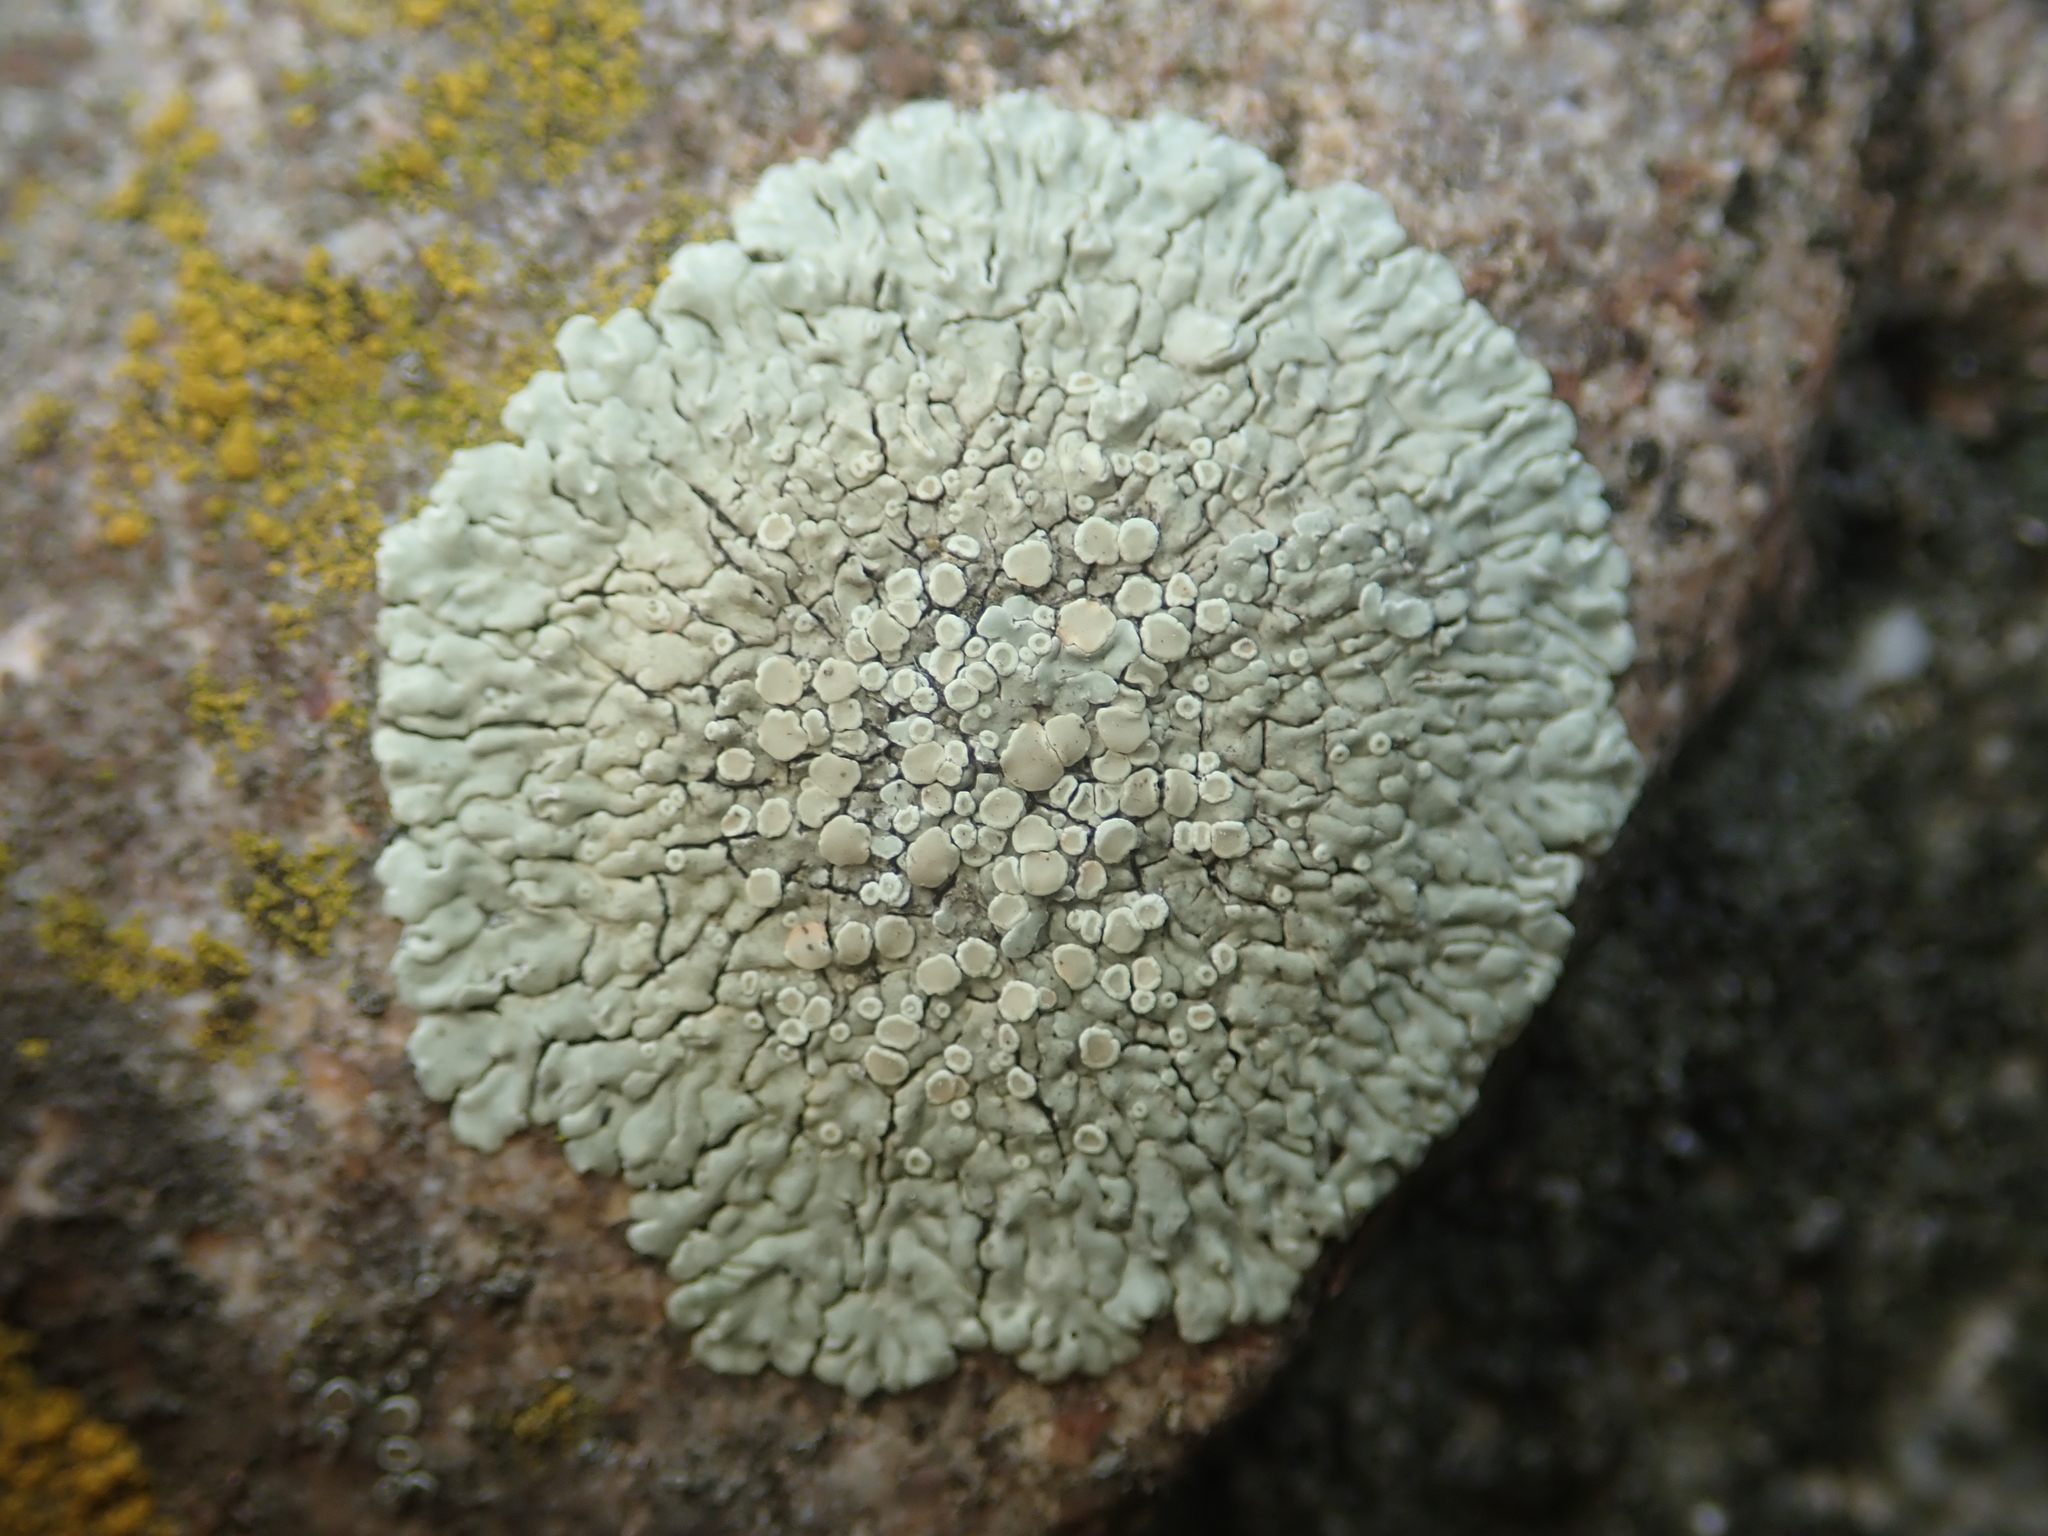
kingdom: Fungi
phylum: Ascomycota
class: Lecanoromycetes
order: Lecanorales
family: Lecanoraceae
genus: Protoparmeliopsis
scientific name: Protoparmeliopsis muralis
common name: Stonewall rim lichen
